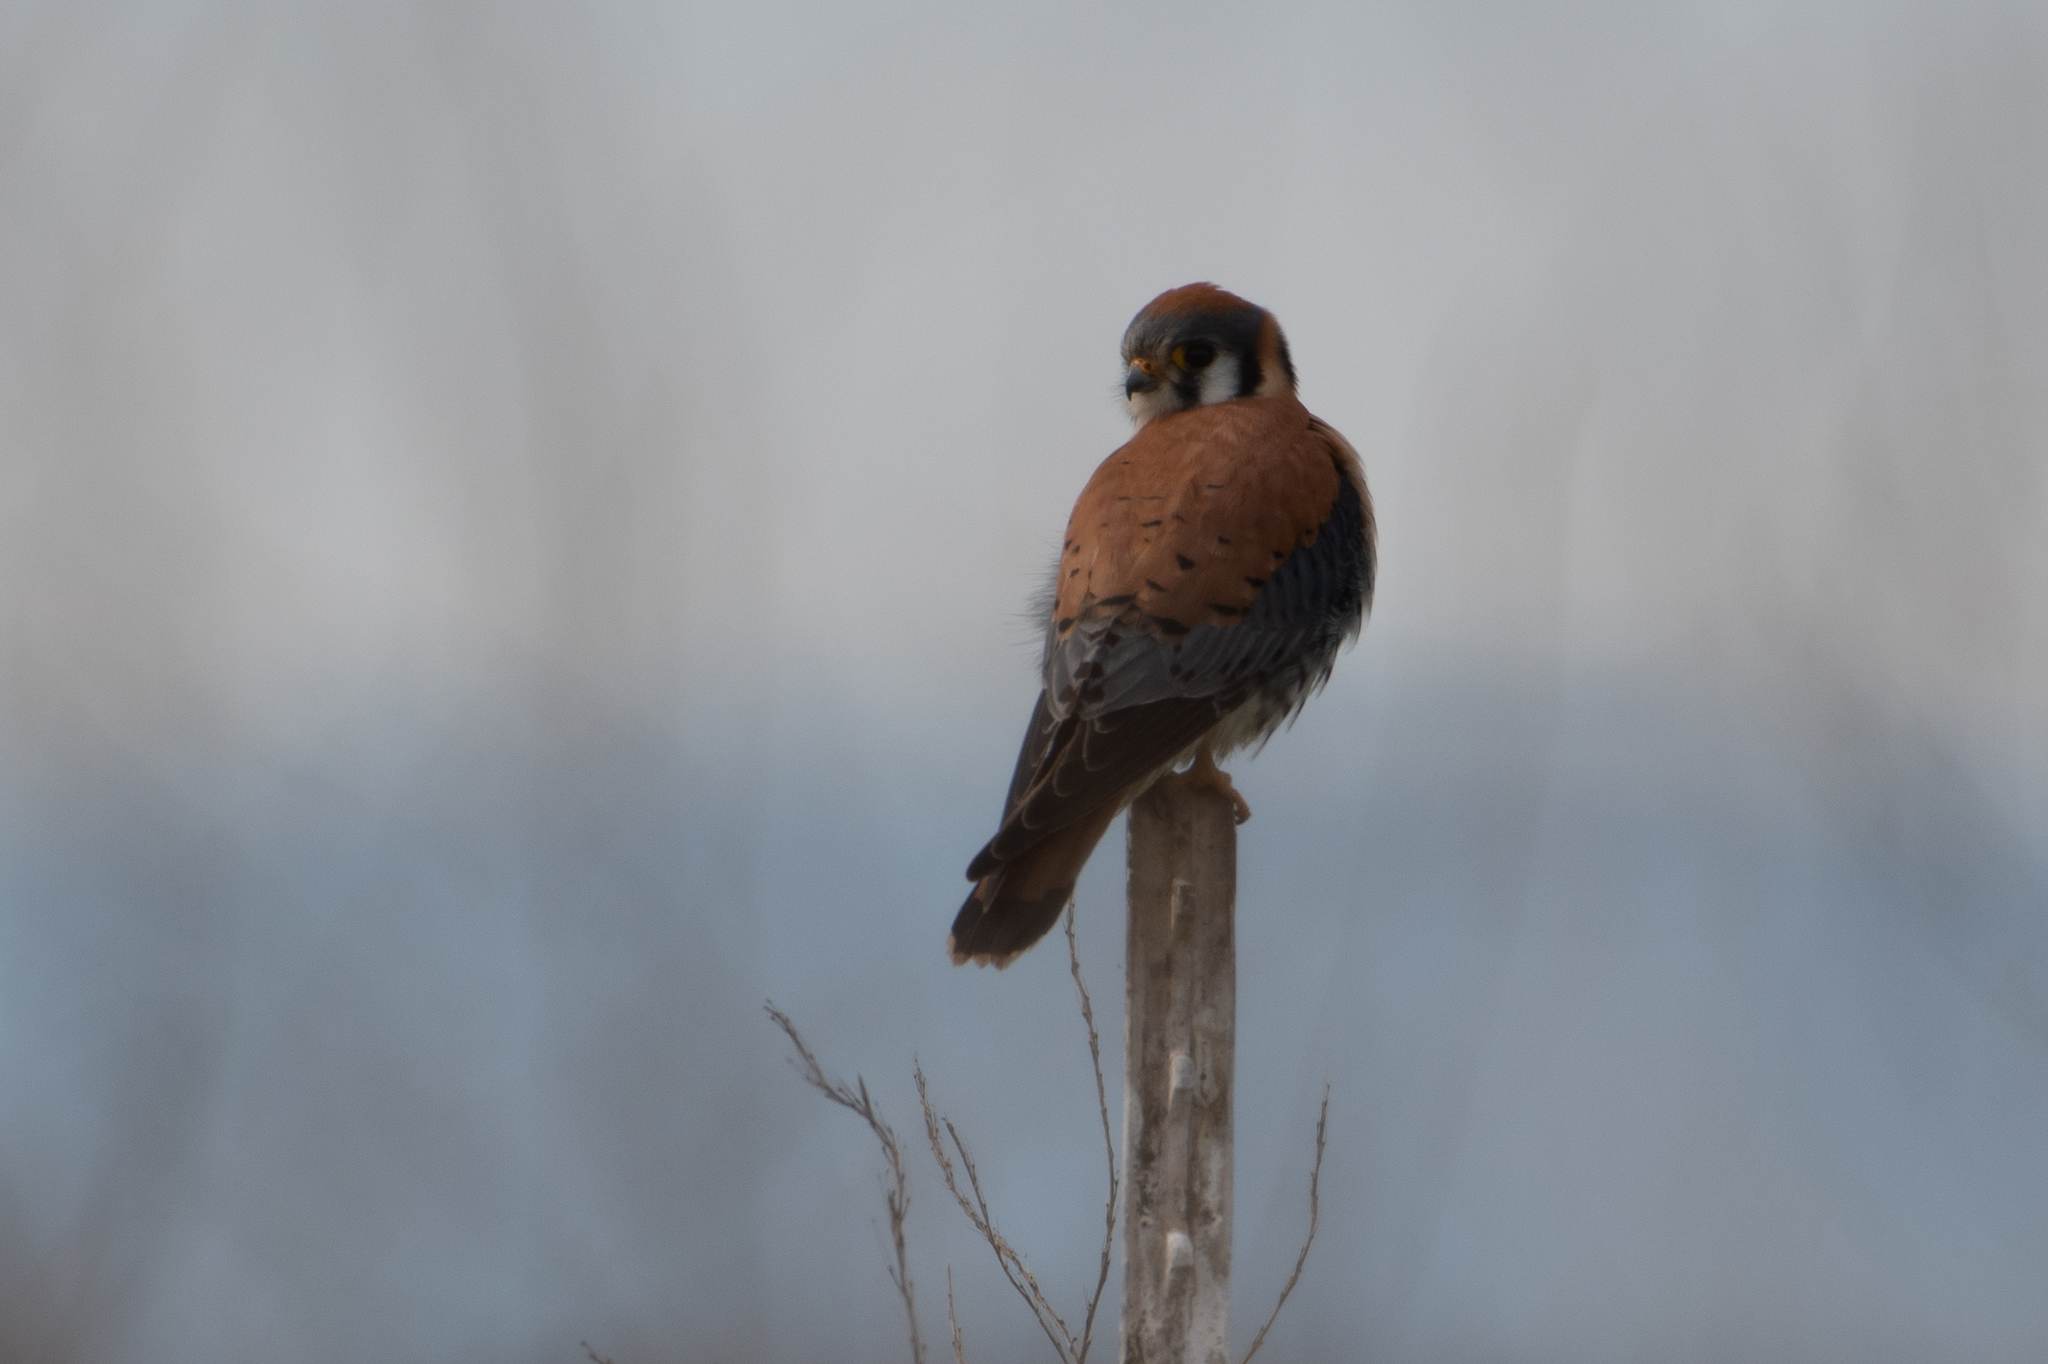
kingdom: Animalia
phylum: Chordata
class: Aves
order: Falconiformes
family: Falconidae
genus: Falco
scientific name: Falco sparverius
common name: American kestrel
